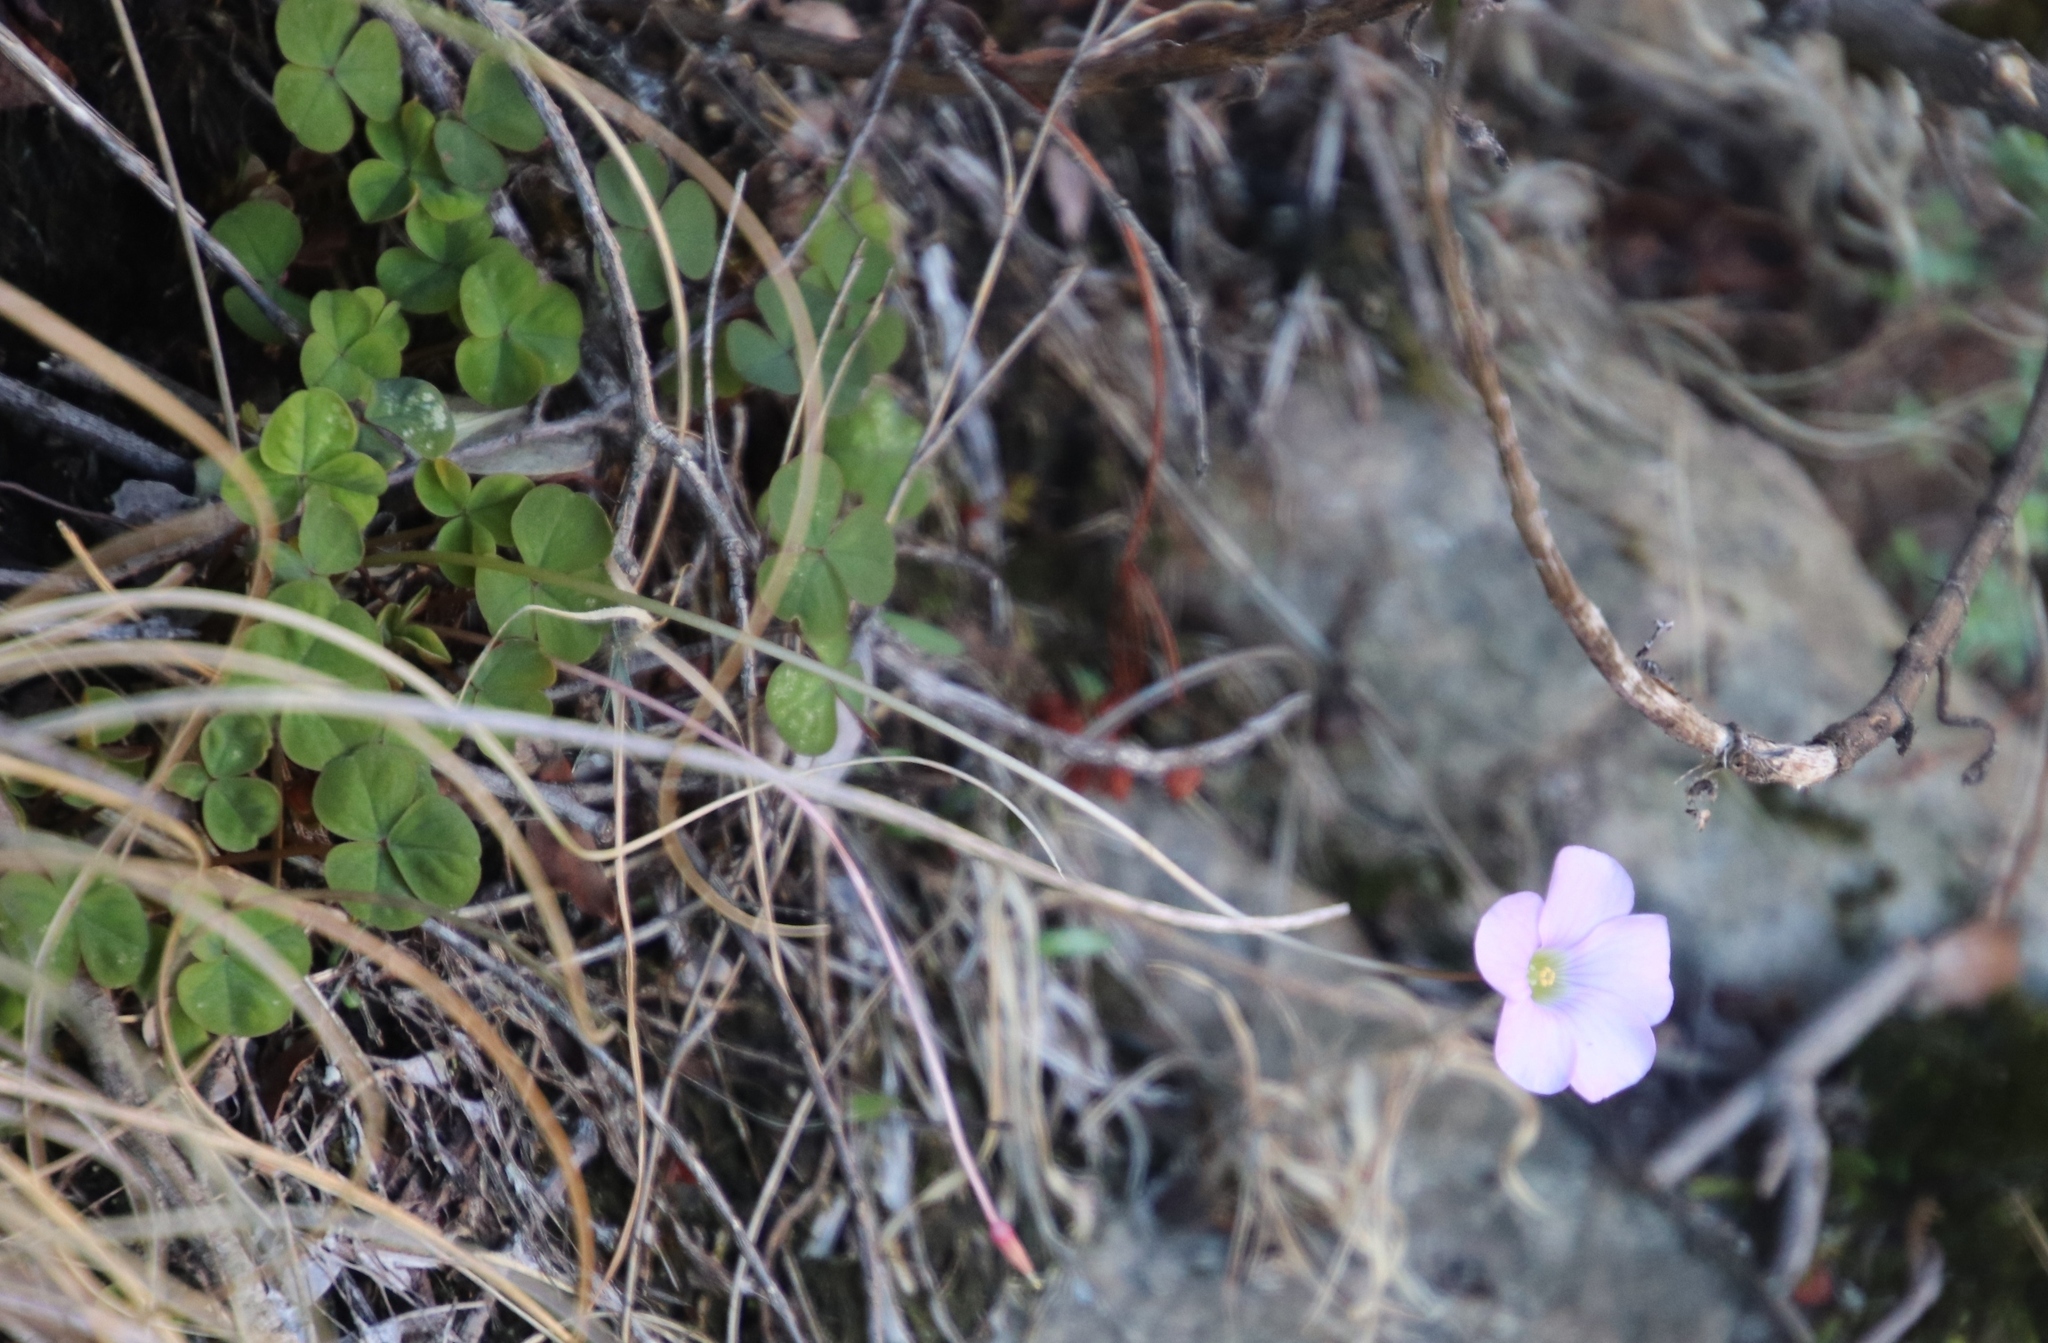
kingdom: Plantae
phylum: Tracheophyta
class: Magnoliopsida
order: Oxalidales
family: Oxalidaceae
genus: Oxalis
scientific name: Oxalis commutata
